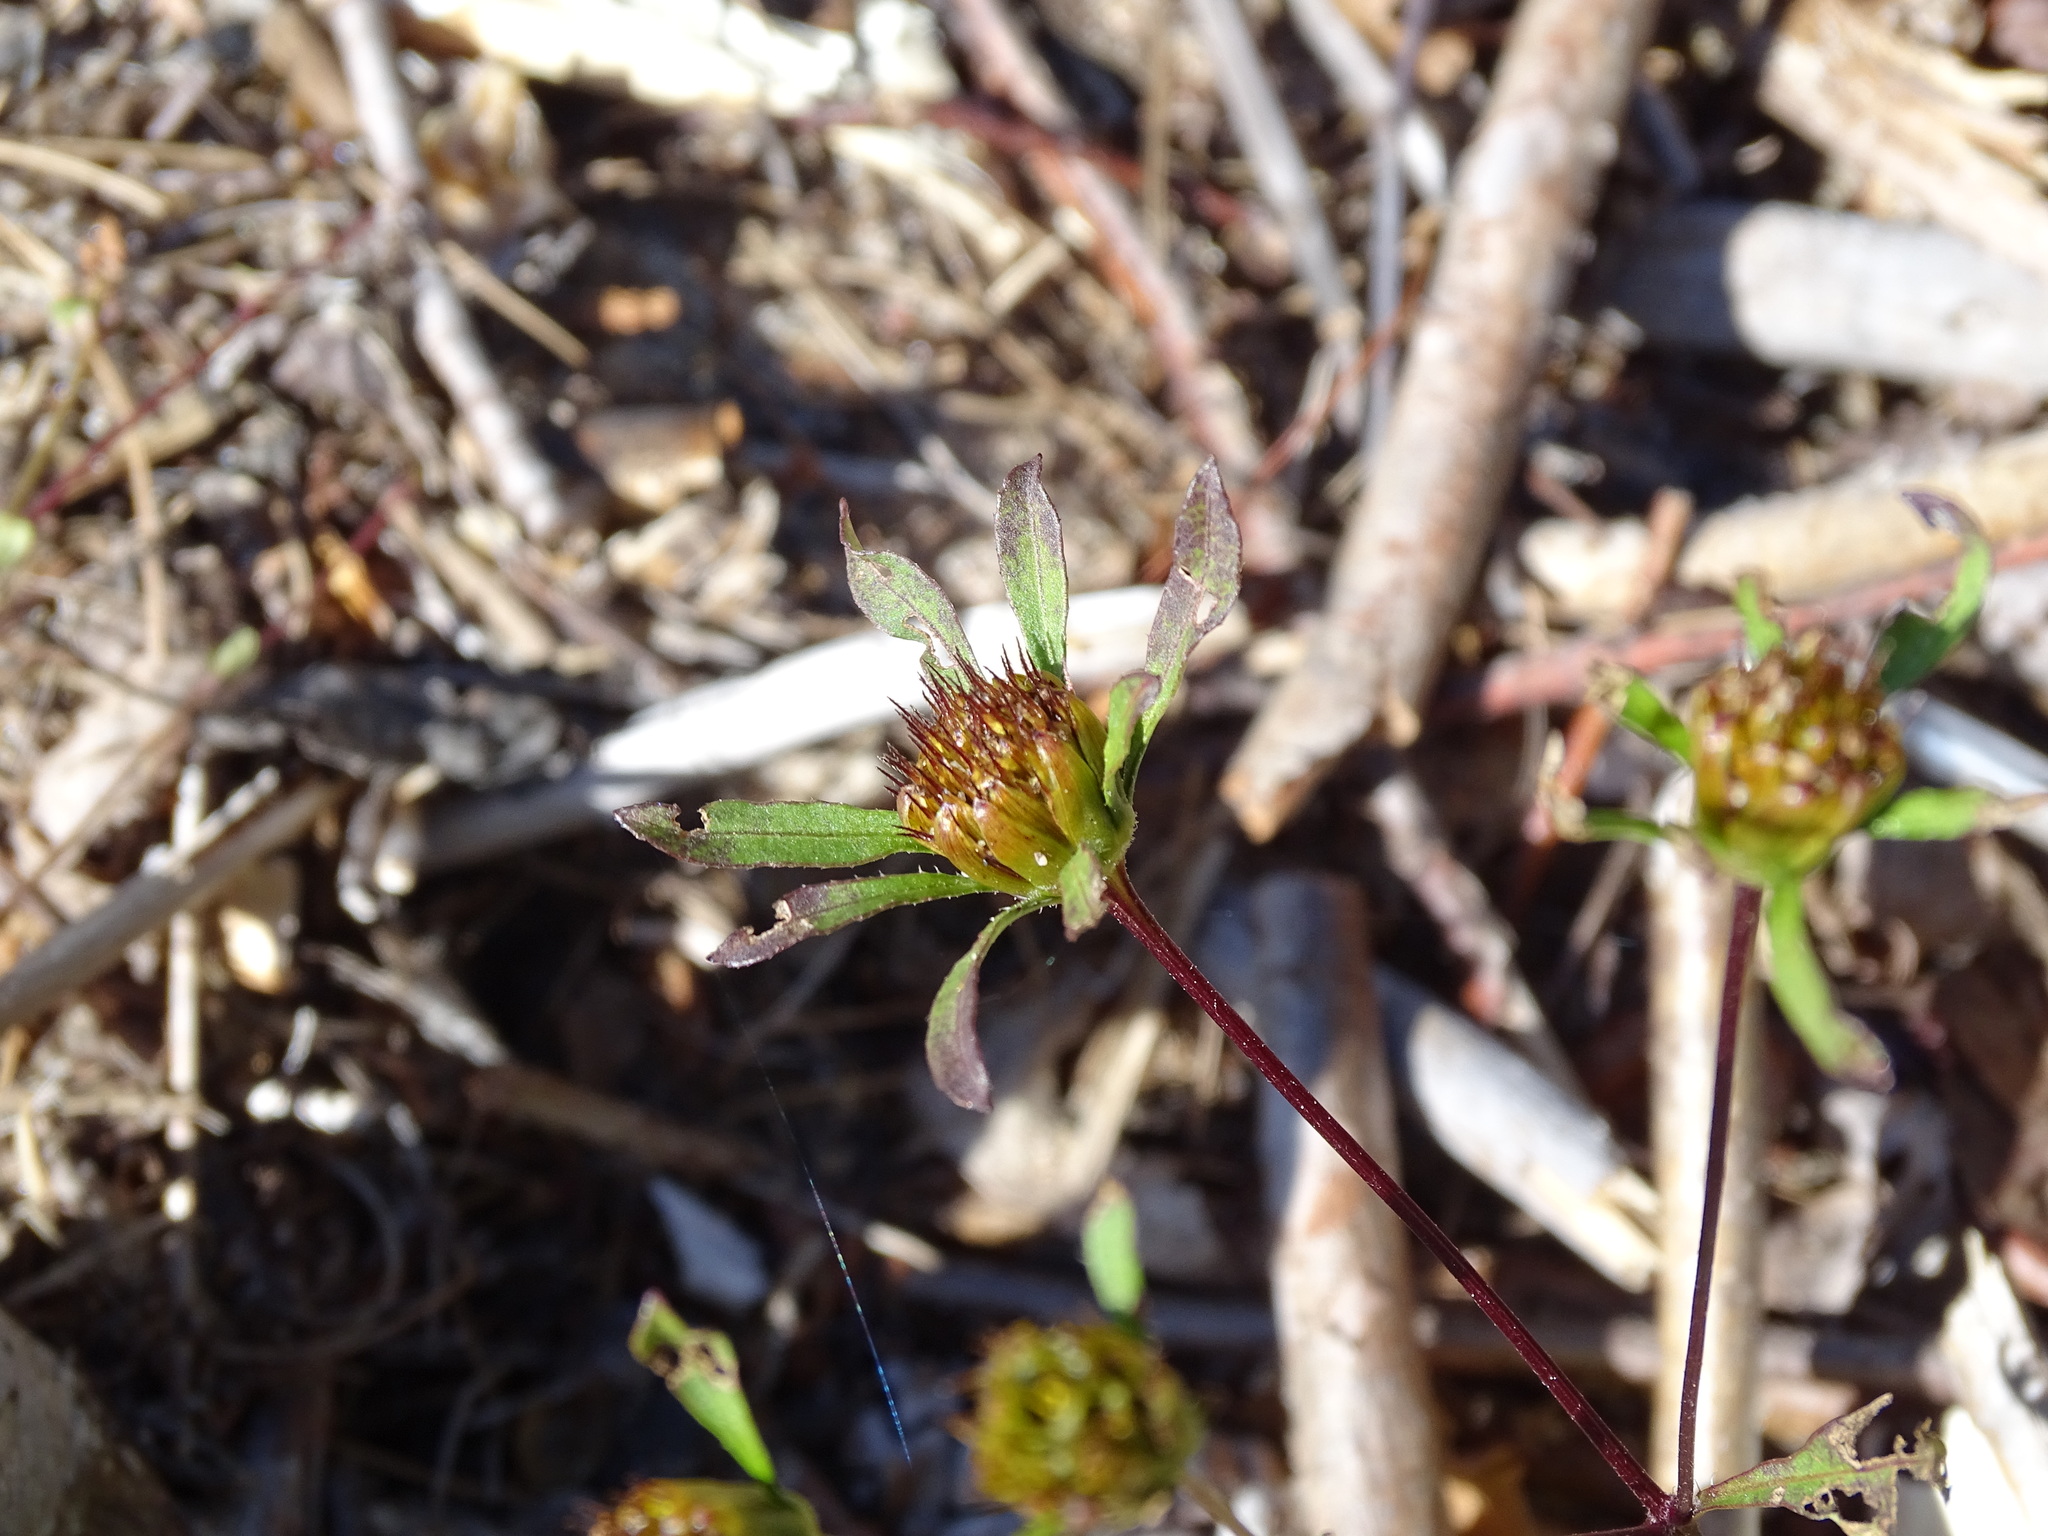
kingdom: Plantae
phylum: Tracheophyta
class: Magnoliopsida
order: Asterales
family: Asteraceae
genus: Bidens
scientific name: Bidens frondosa
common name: Beggarticks
